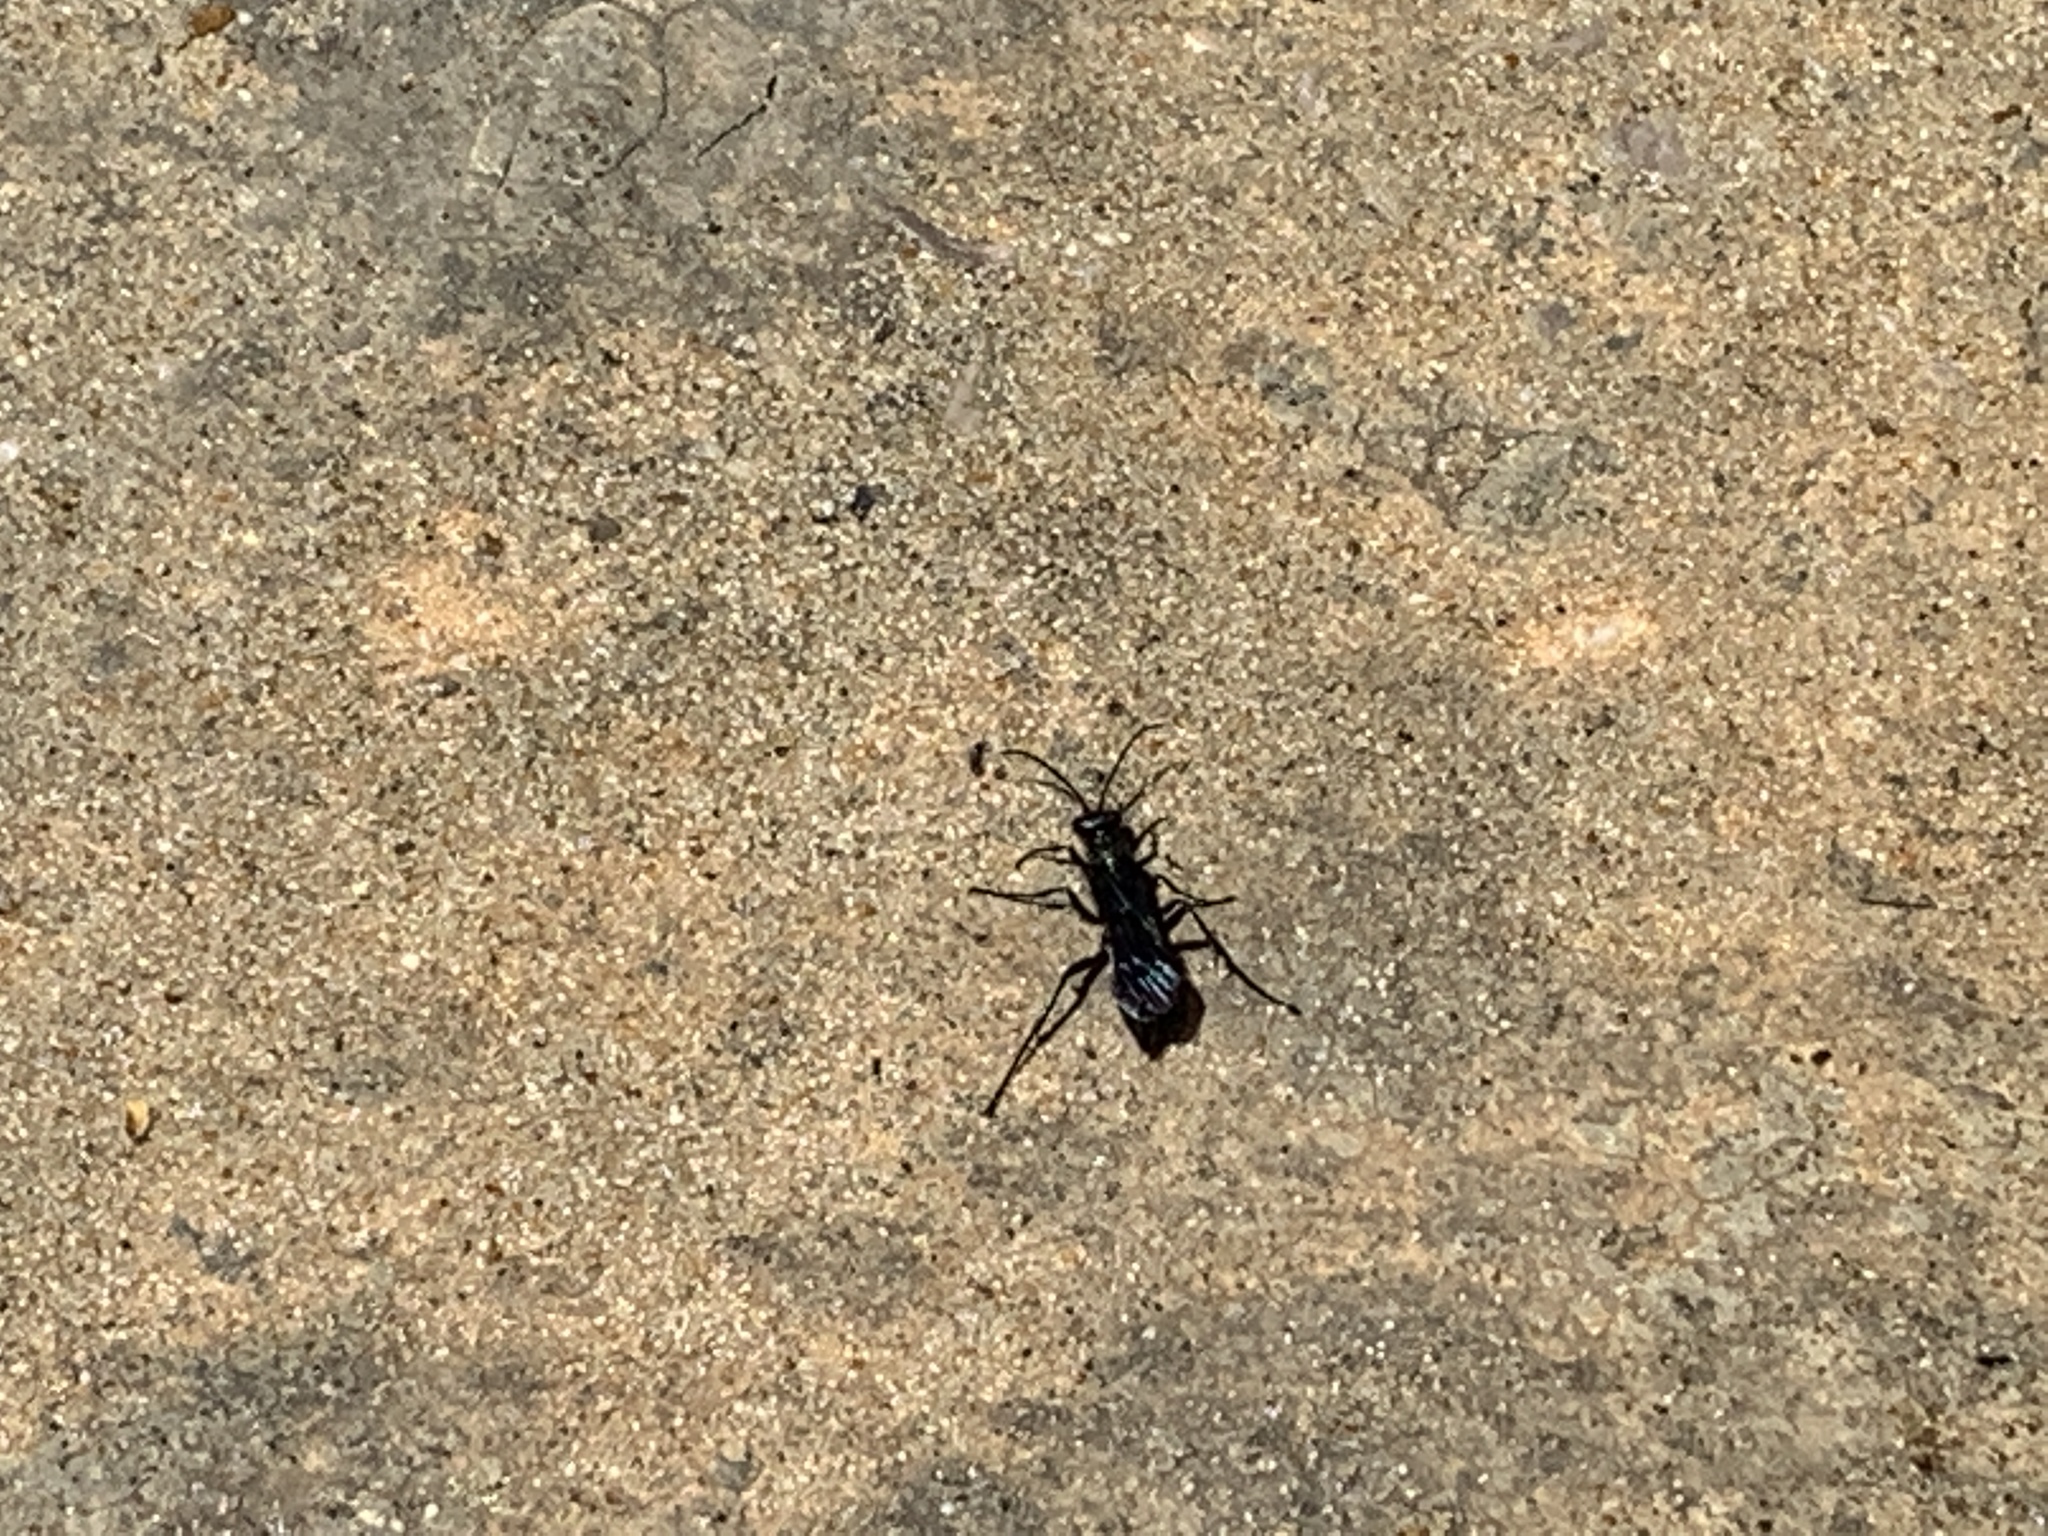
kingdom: Animalia
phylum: Arthropoda
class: Insecta
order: Hymenoptera
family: Sphecidae
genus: Chalybion
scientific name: Chalybion californicum
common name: Mud dauber
